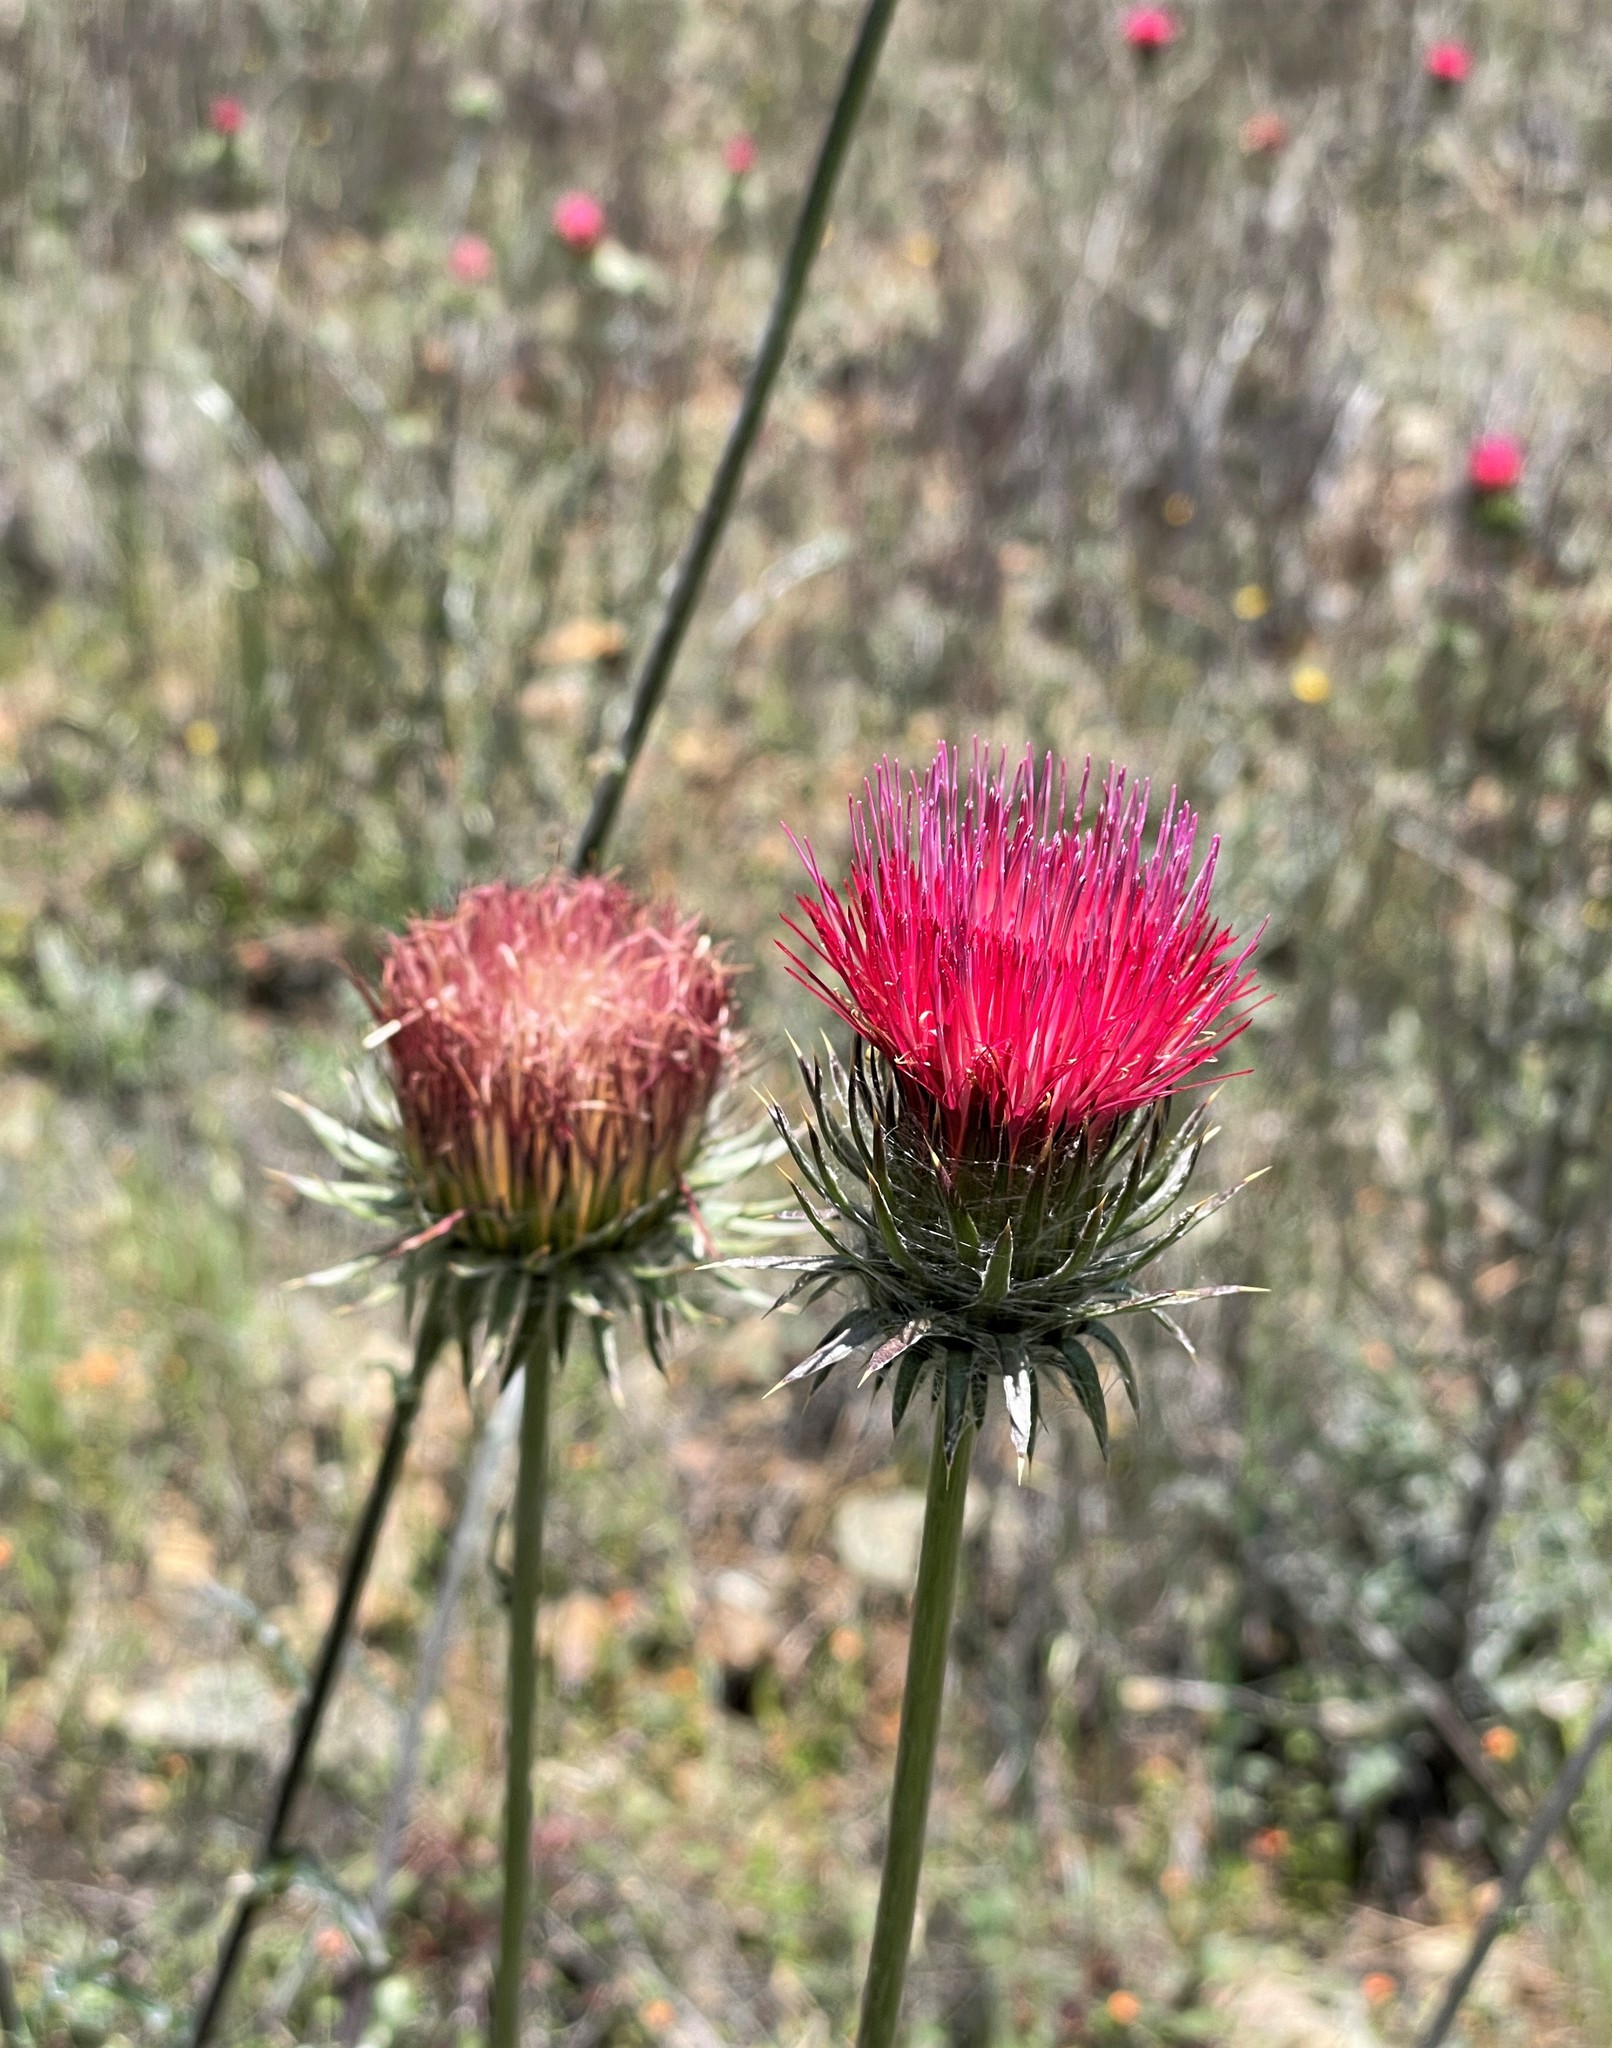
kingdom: Plantae
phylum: Tracheophyta
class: Magnoliopsida
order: Asterales
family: Asteraceae
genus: Cirsium
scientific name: Cirsium occidentale
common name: Western thistle
